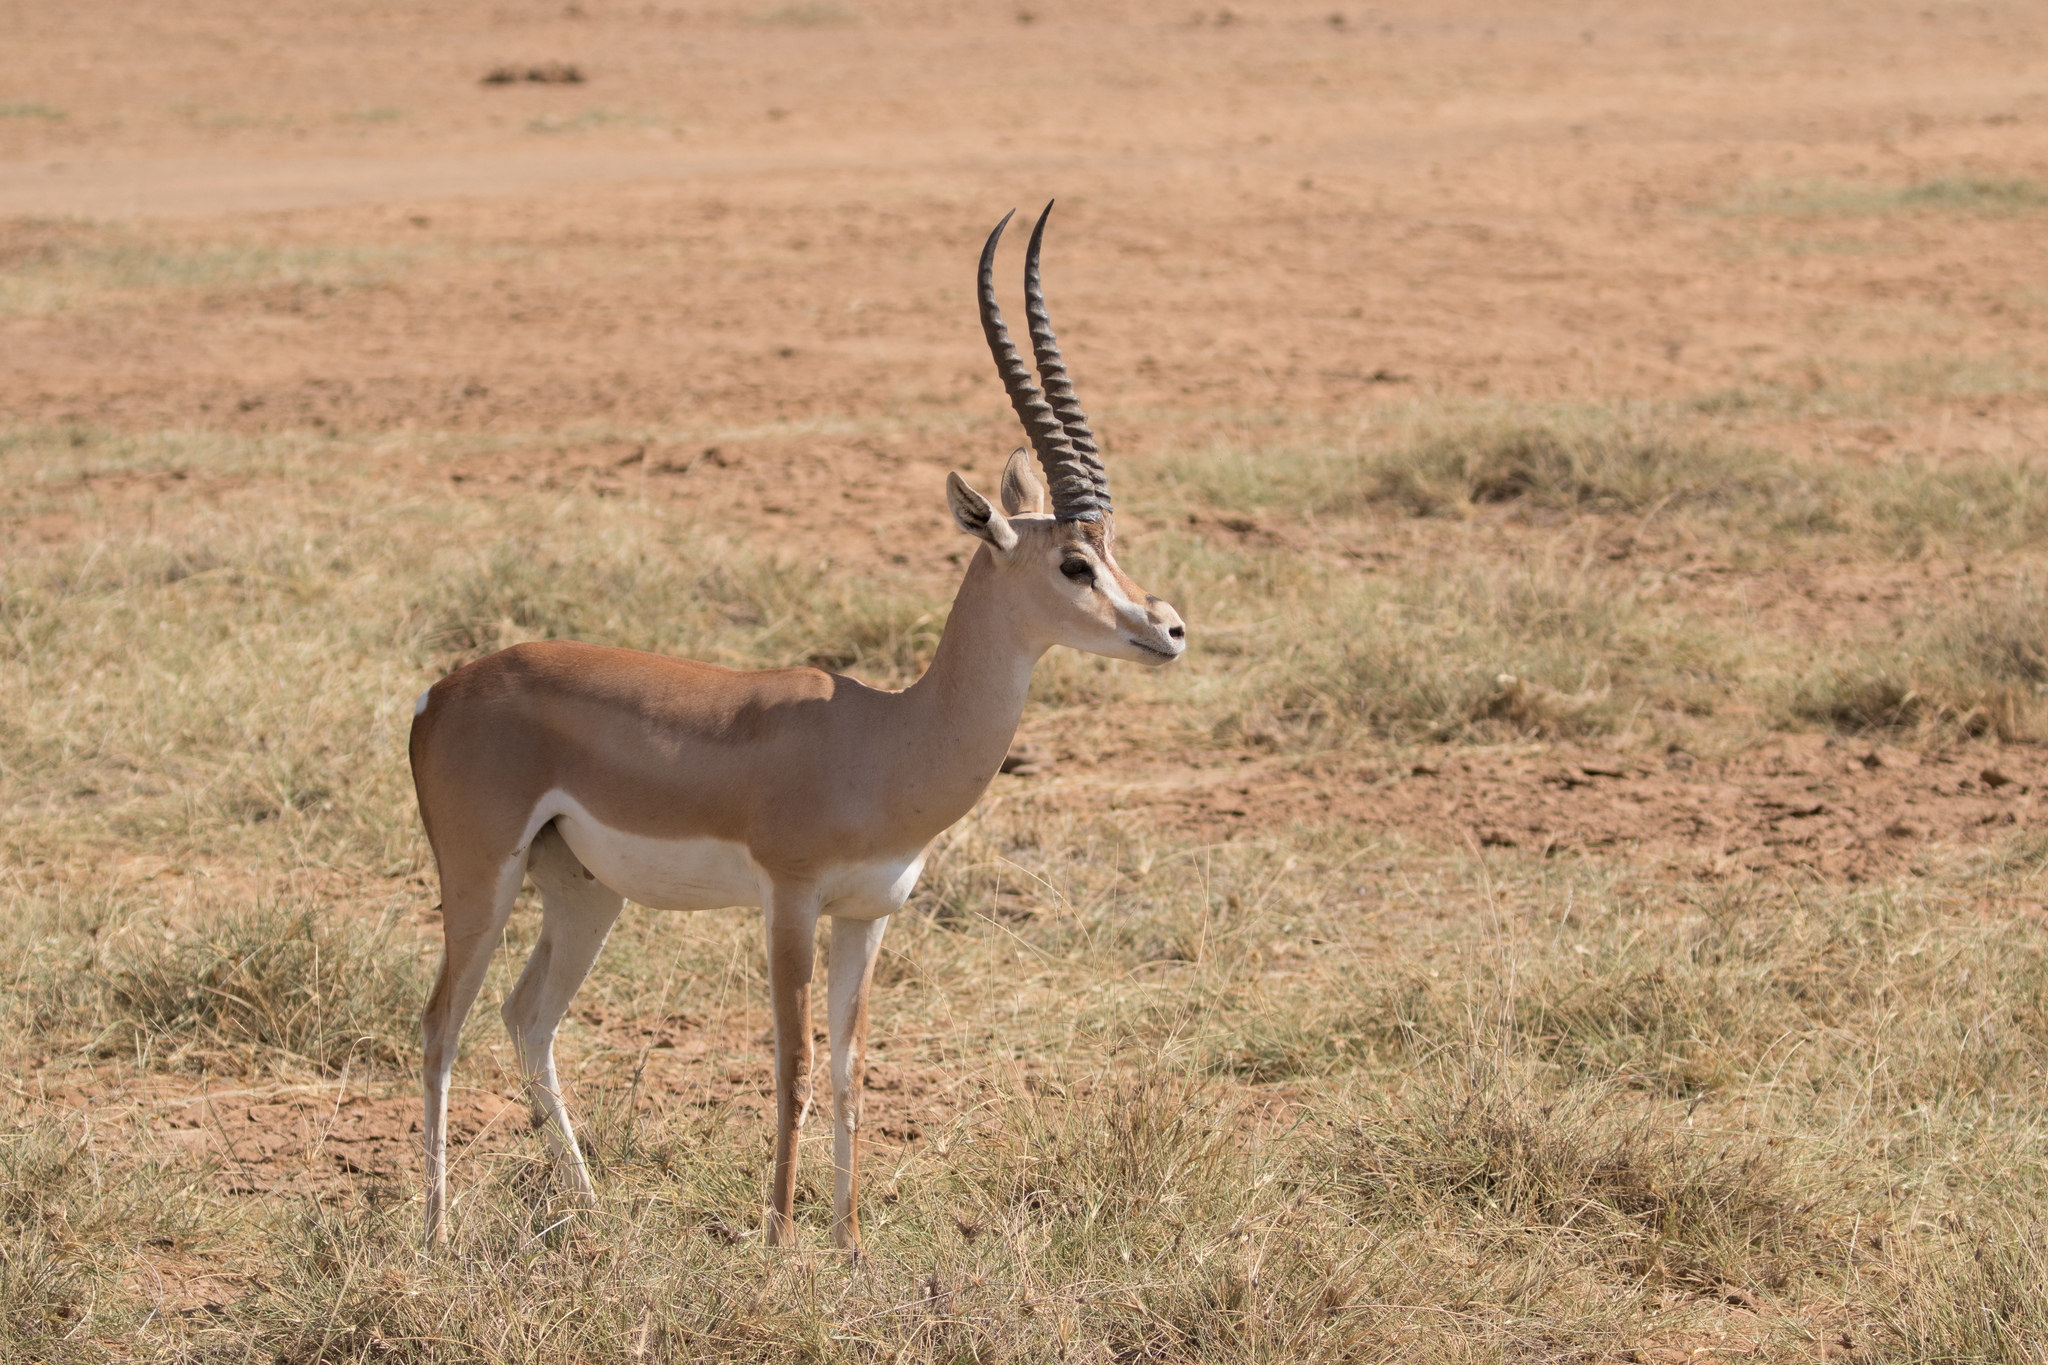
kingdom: Animalia
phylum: Chordata
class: Mammalia
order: Artiodactyla
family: Bovidae
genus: Nanger
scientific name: Nanger granti
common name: Grant's gazelle
